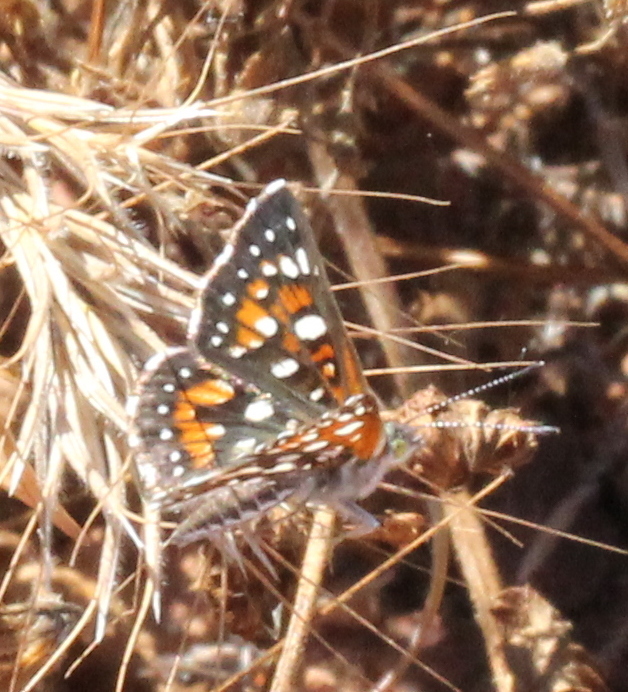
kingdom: Animalia
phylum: Arthropoda
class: Insecta
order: Lepidoptera
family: Riodinidae
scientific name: Riodinidae
